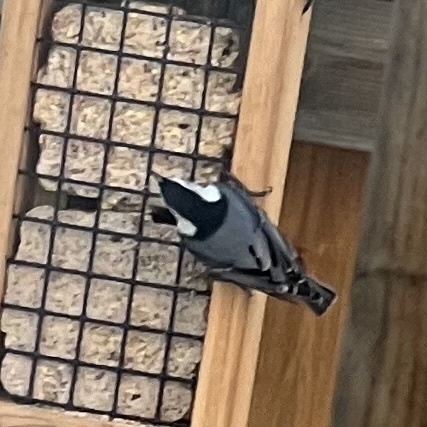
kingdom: Animalia
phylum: Chordata
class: Aves
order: Passeriformes
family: Sittidae
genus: Sitta
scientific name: Sitta carolinensis
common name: White-breasted nuthatch
